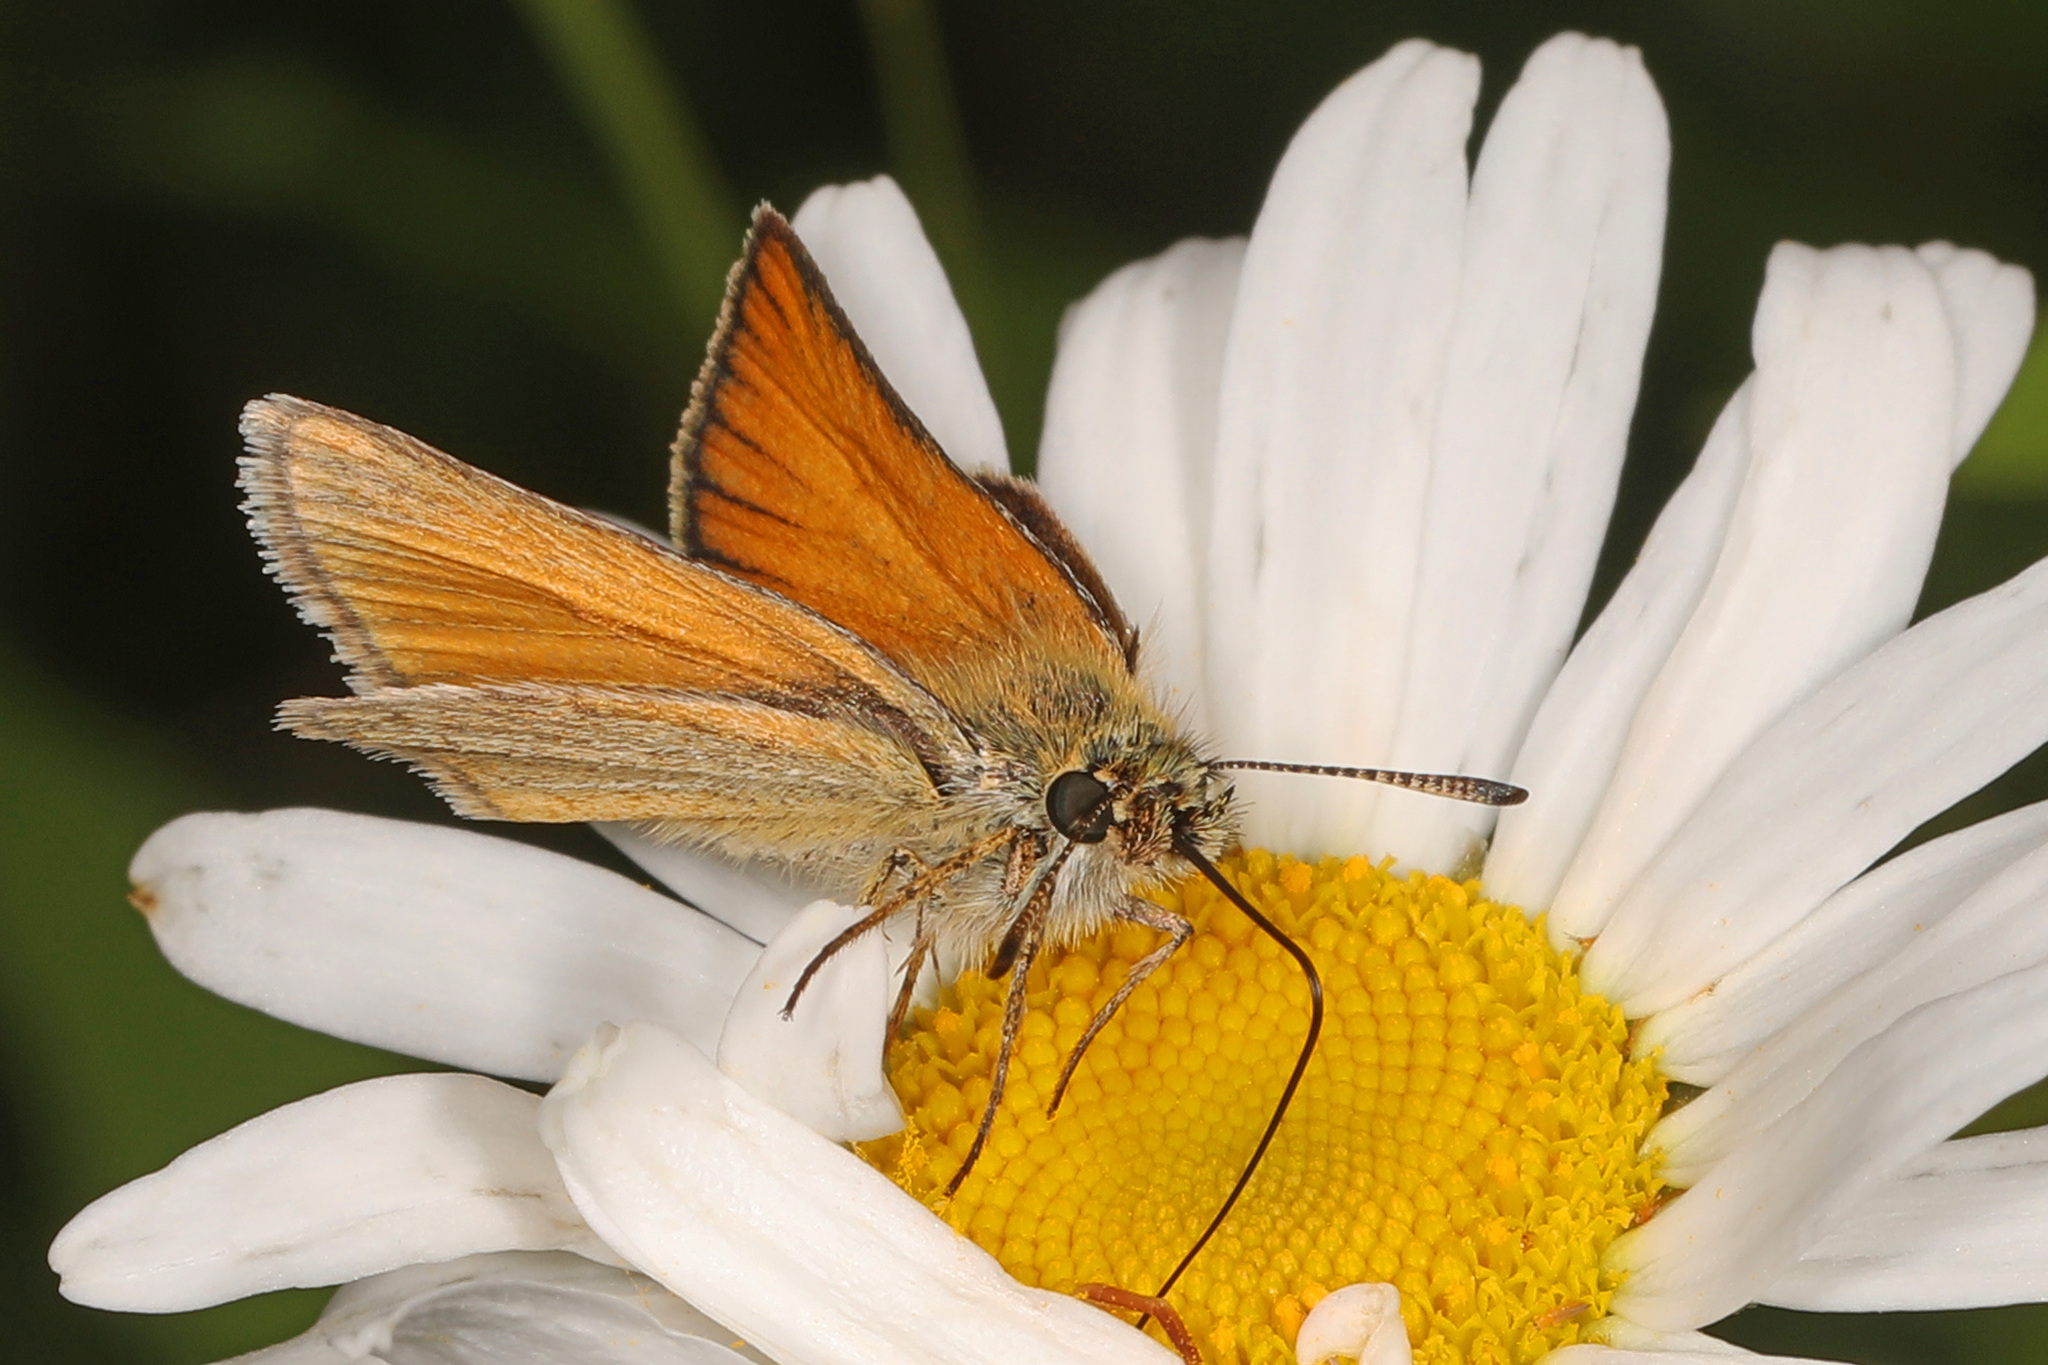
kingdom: Animalia
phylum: Arthropoda
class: Insecta
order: Lepidoptera
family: Hesperiidae
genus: Thymelicus
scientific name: Thymelicus lineola
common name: Essex skipper
